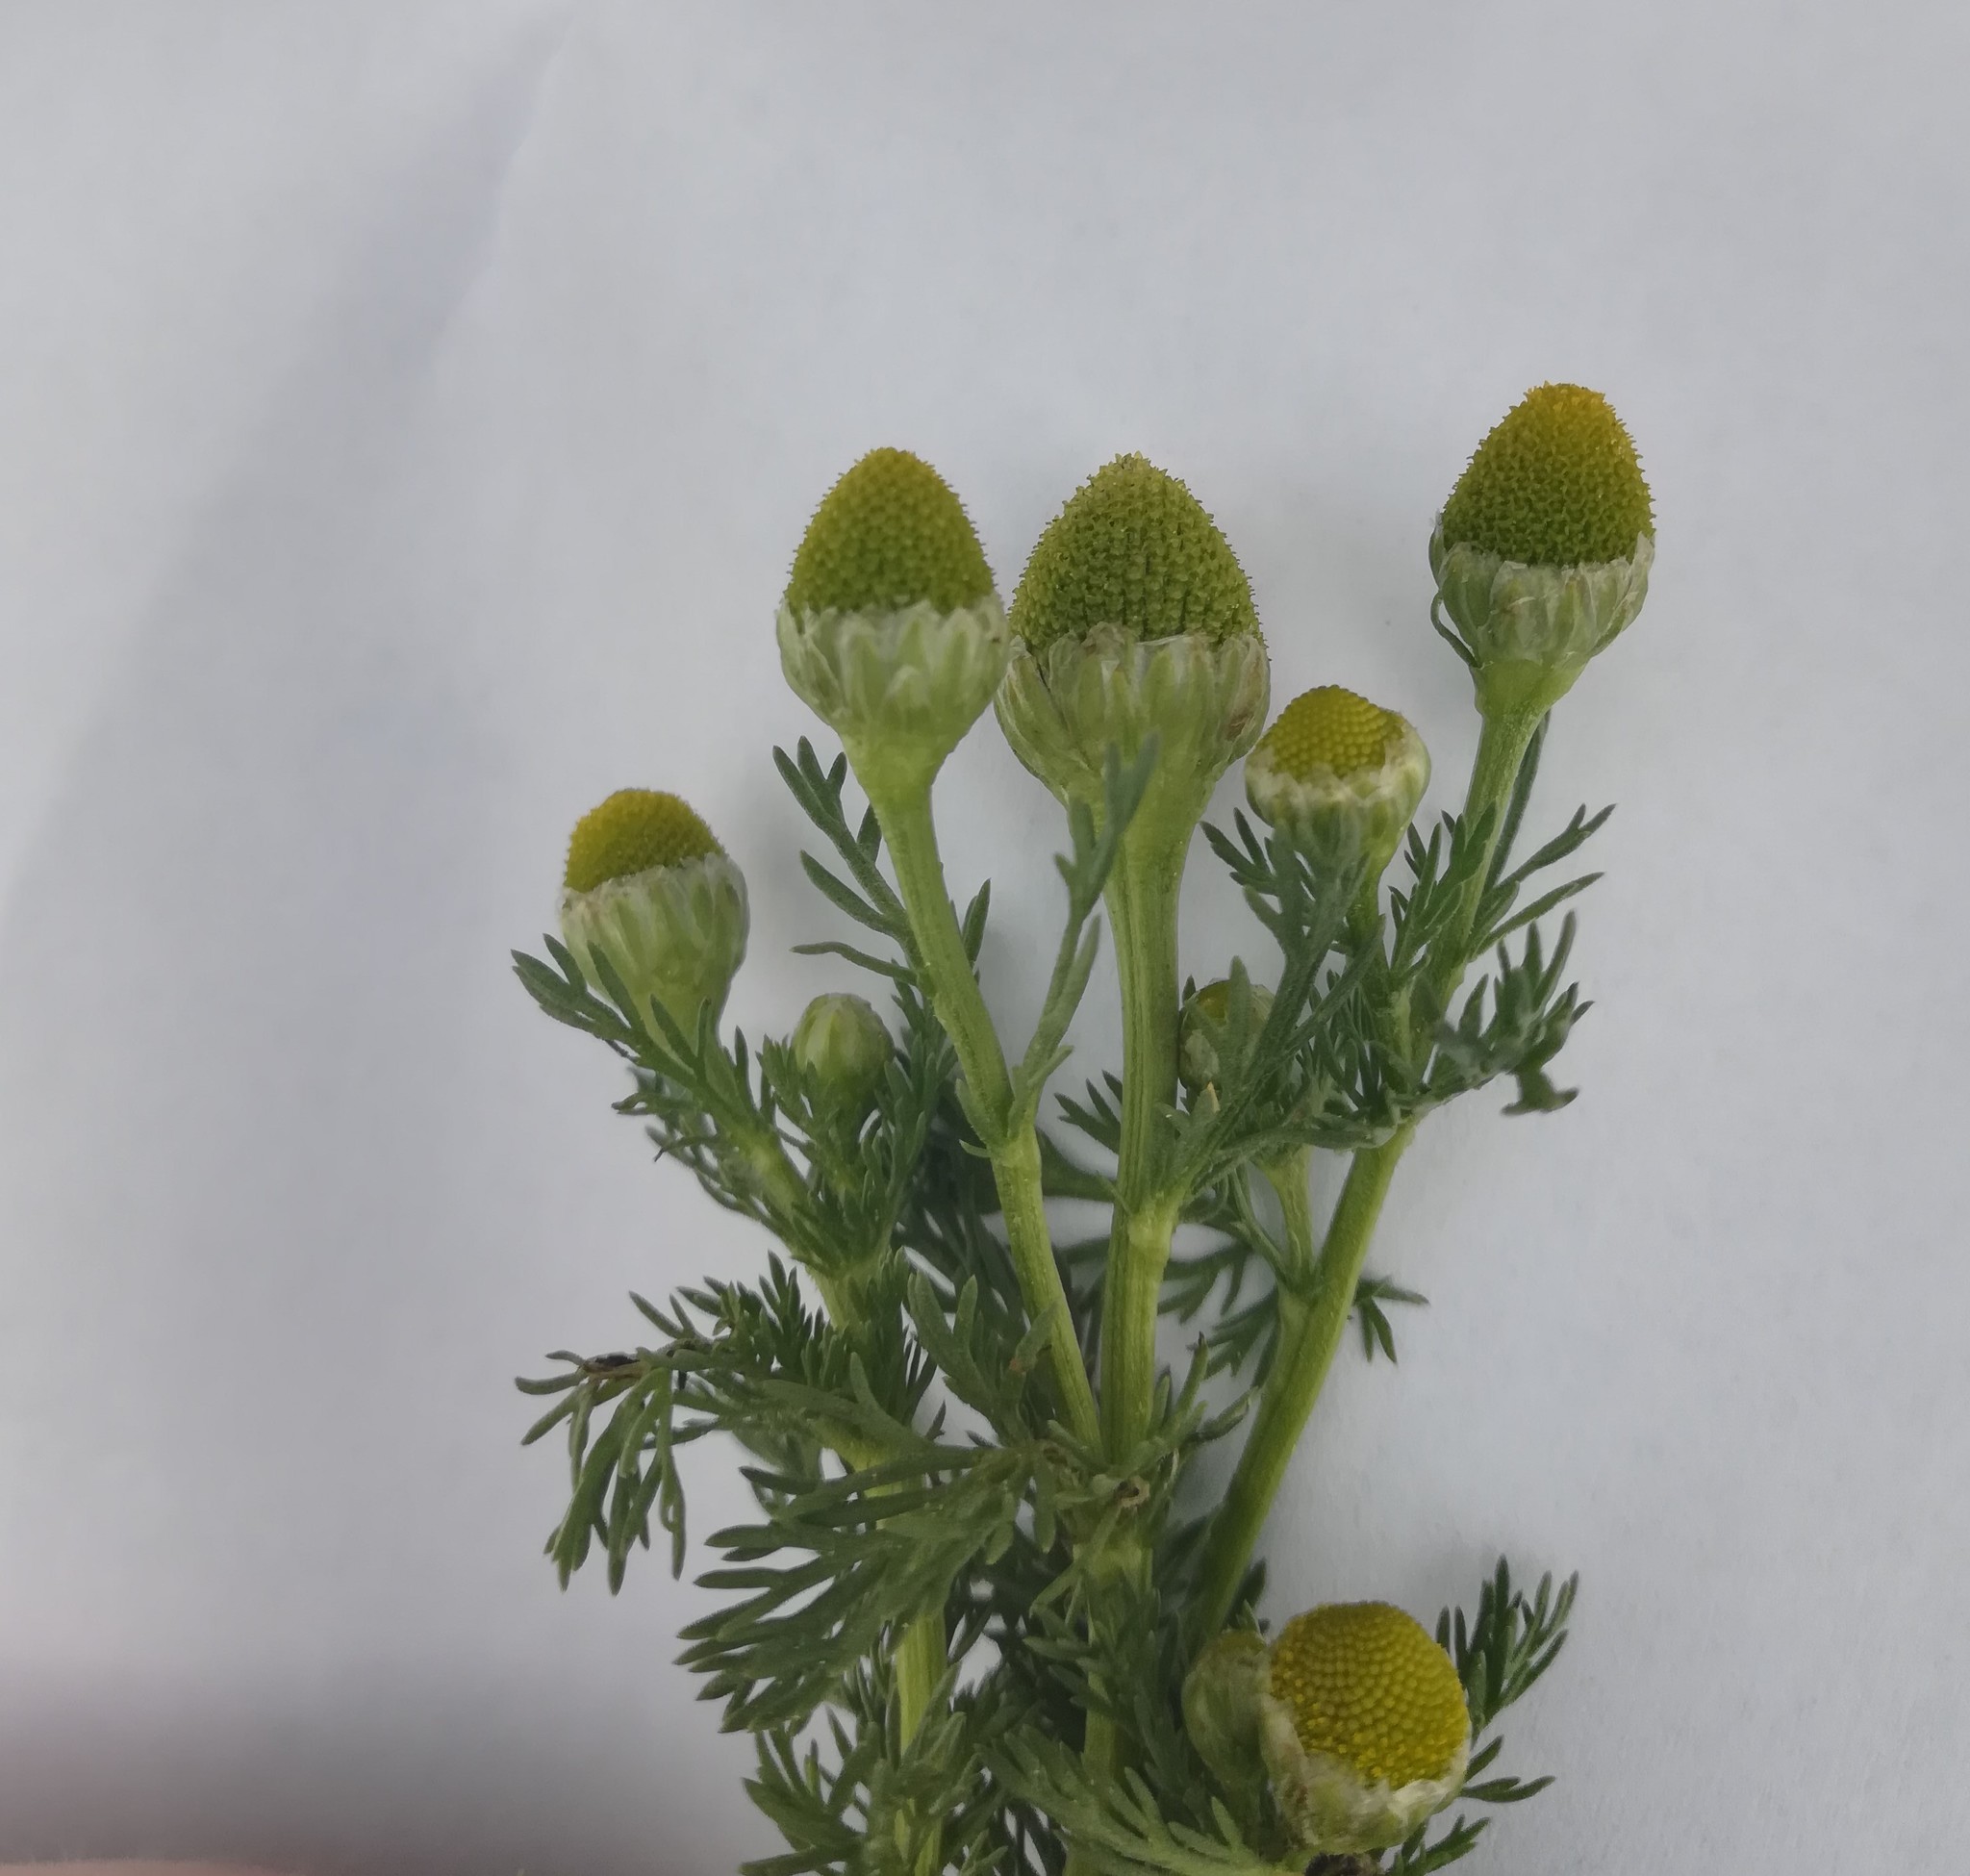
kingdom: Plantae
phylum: Tracheophyta
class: Magnoliopsida
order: Asterales
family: Asteraceae
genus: Matricaria
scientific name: Matricaria discoidea
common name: Disc mayweed
